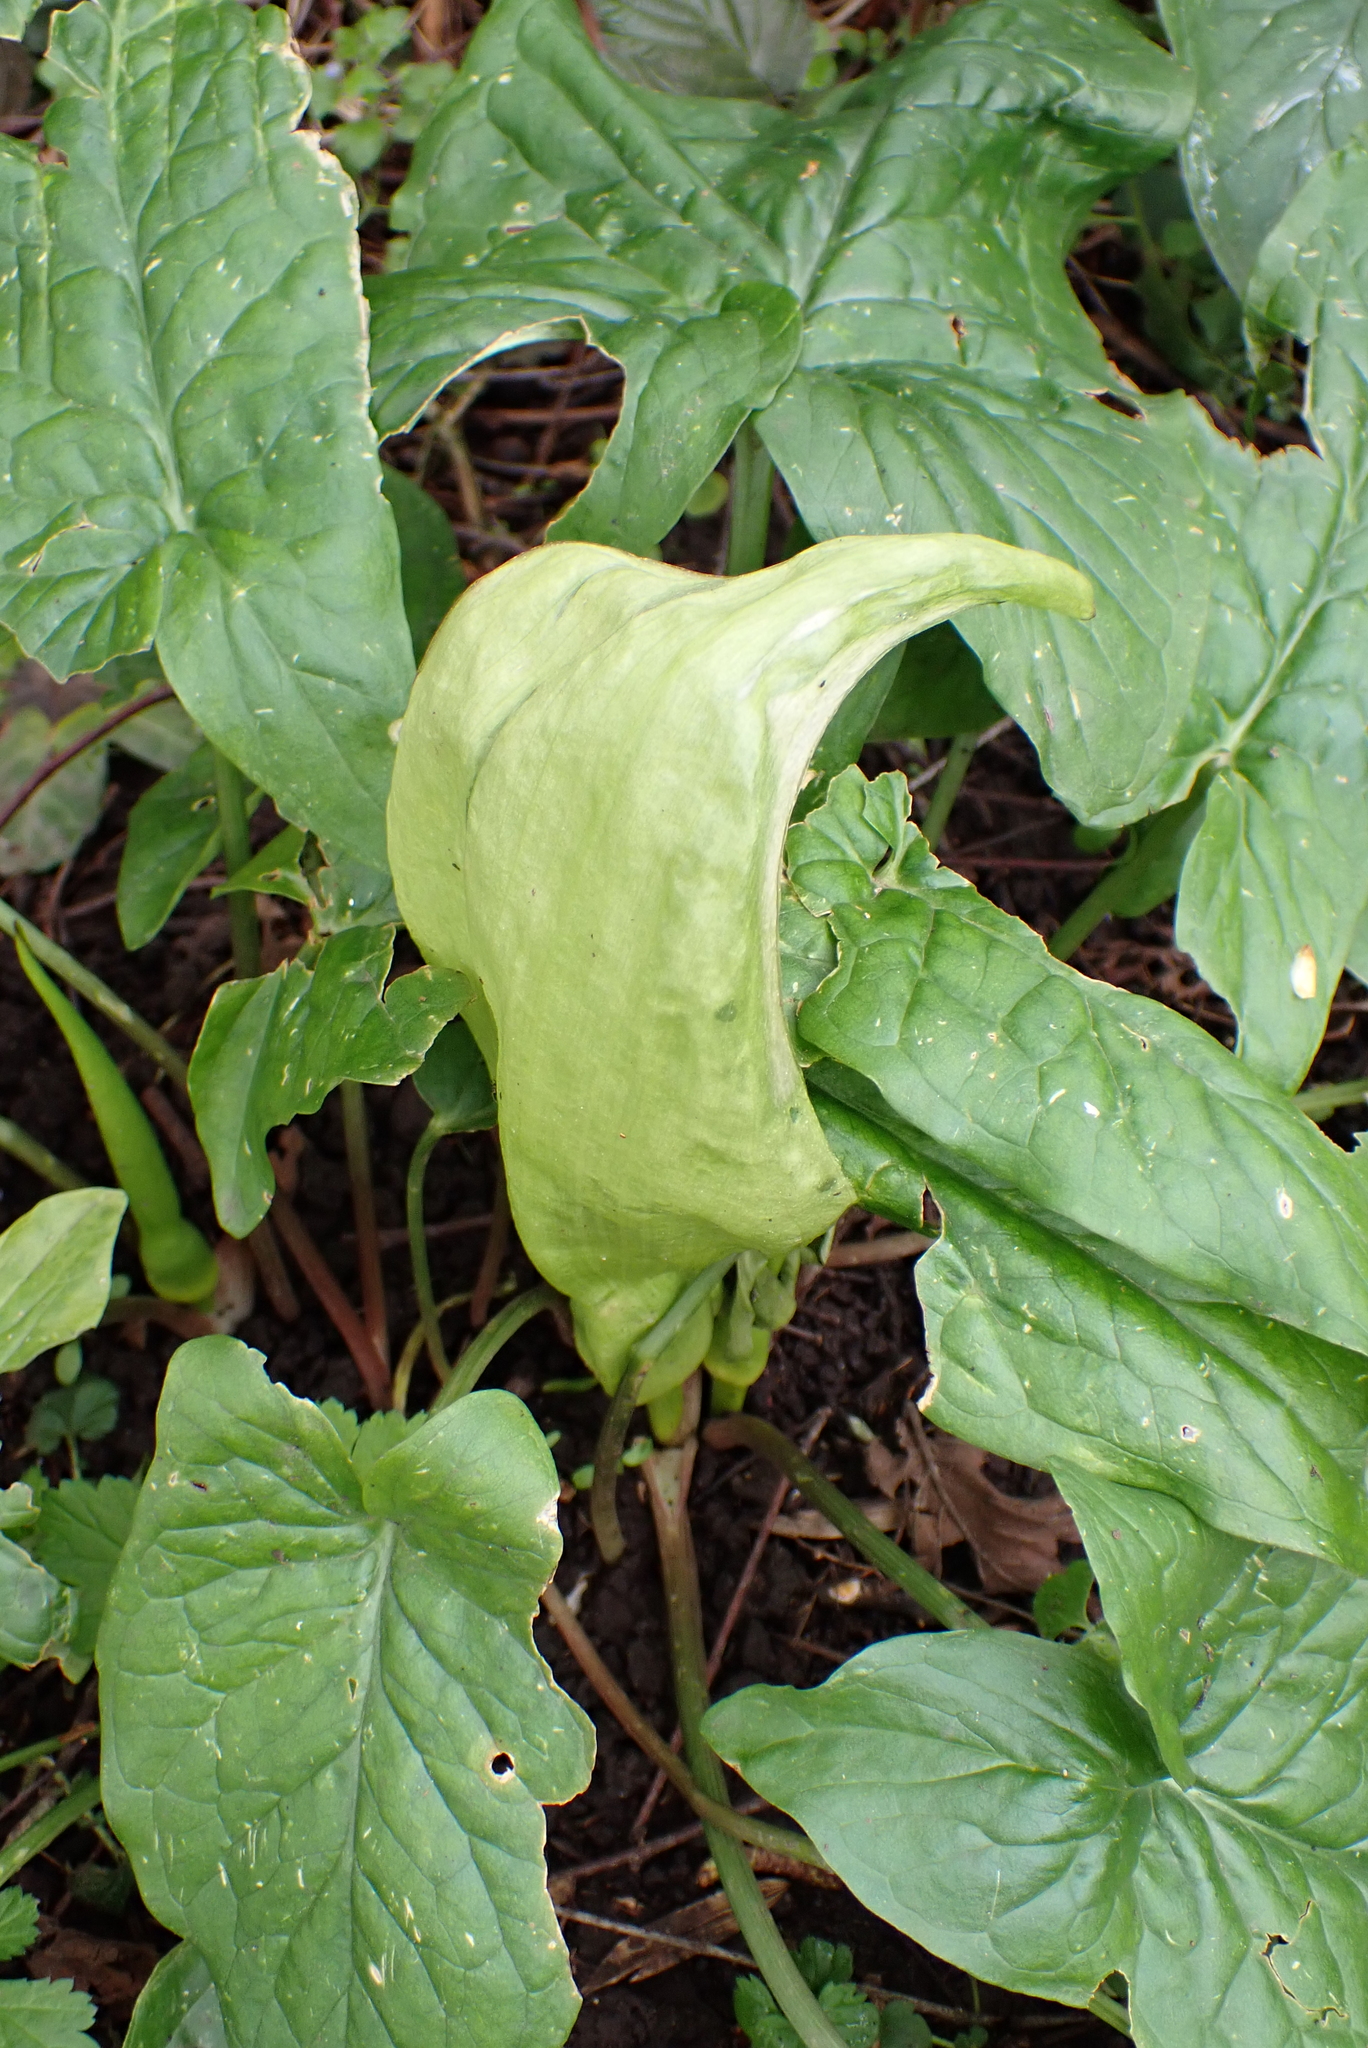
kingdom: Plantae
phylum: Tracheophyta
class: Liliopsida
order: Alismatales
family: Araceae
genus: Arum
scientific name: Arum maculatum
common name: Lords-and-ladies
